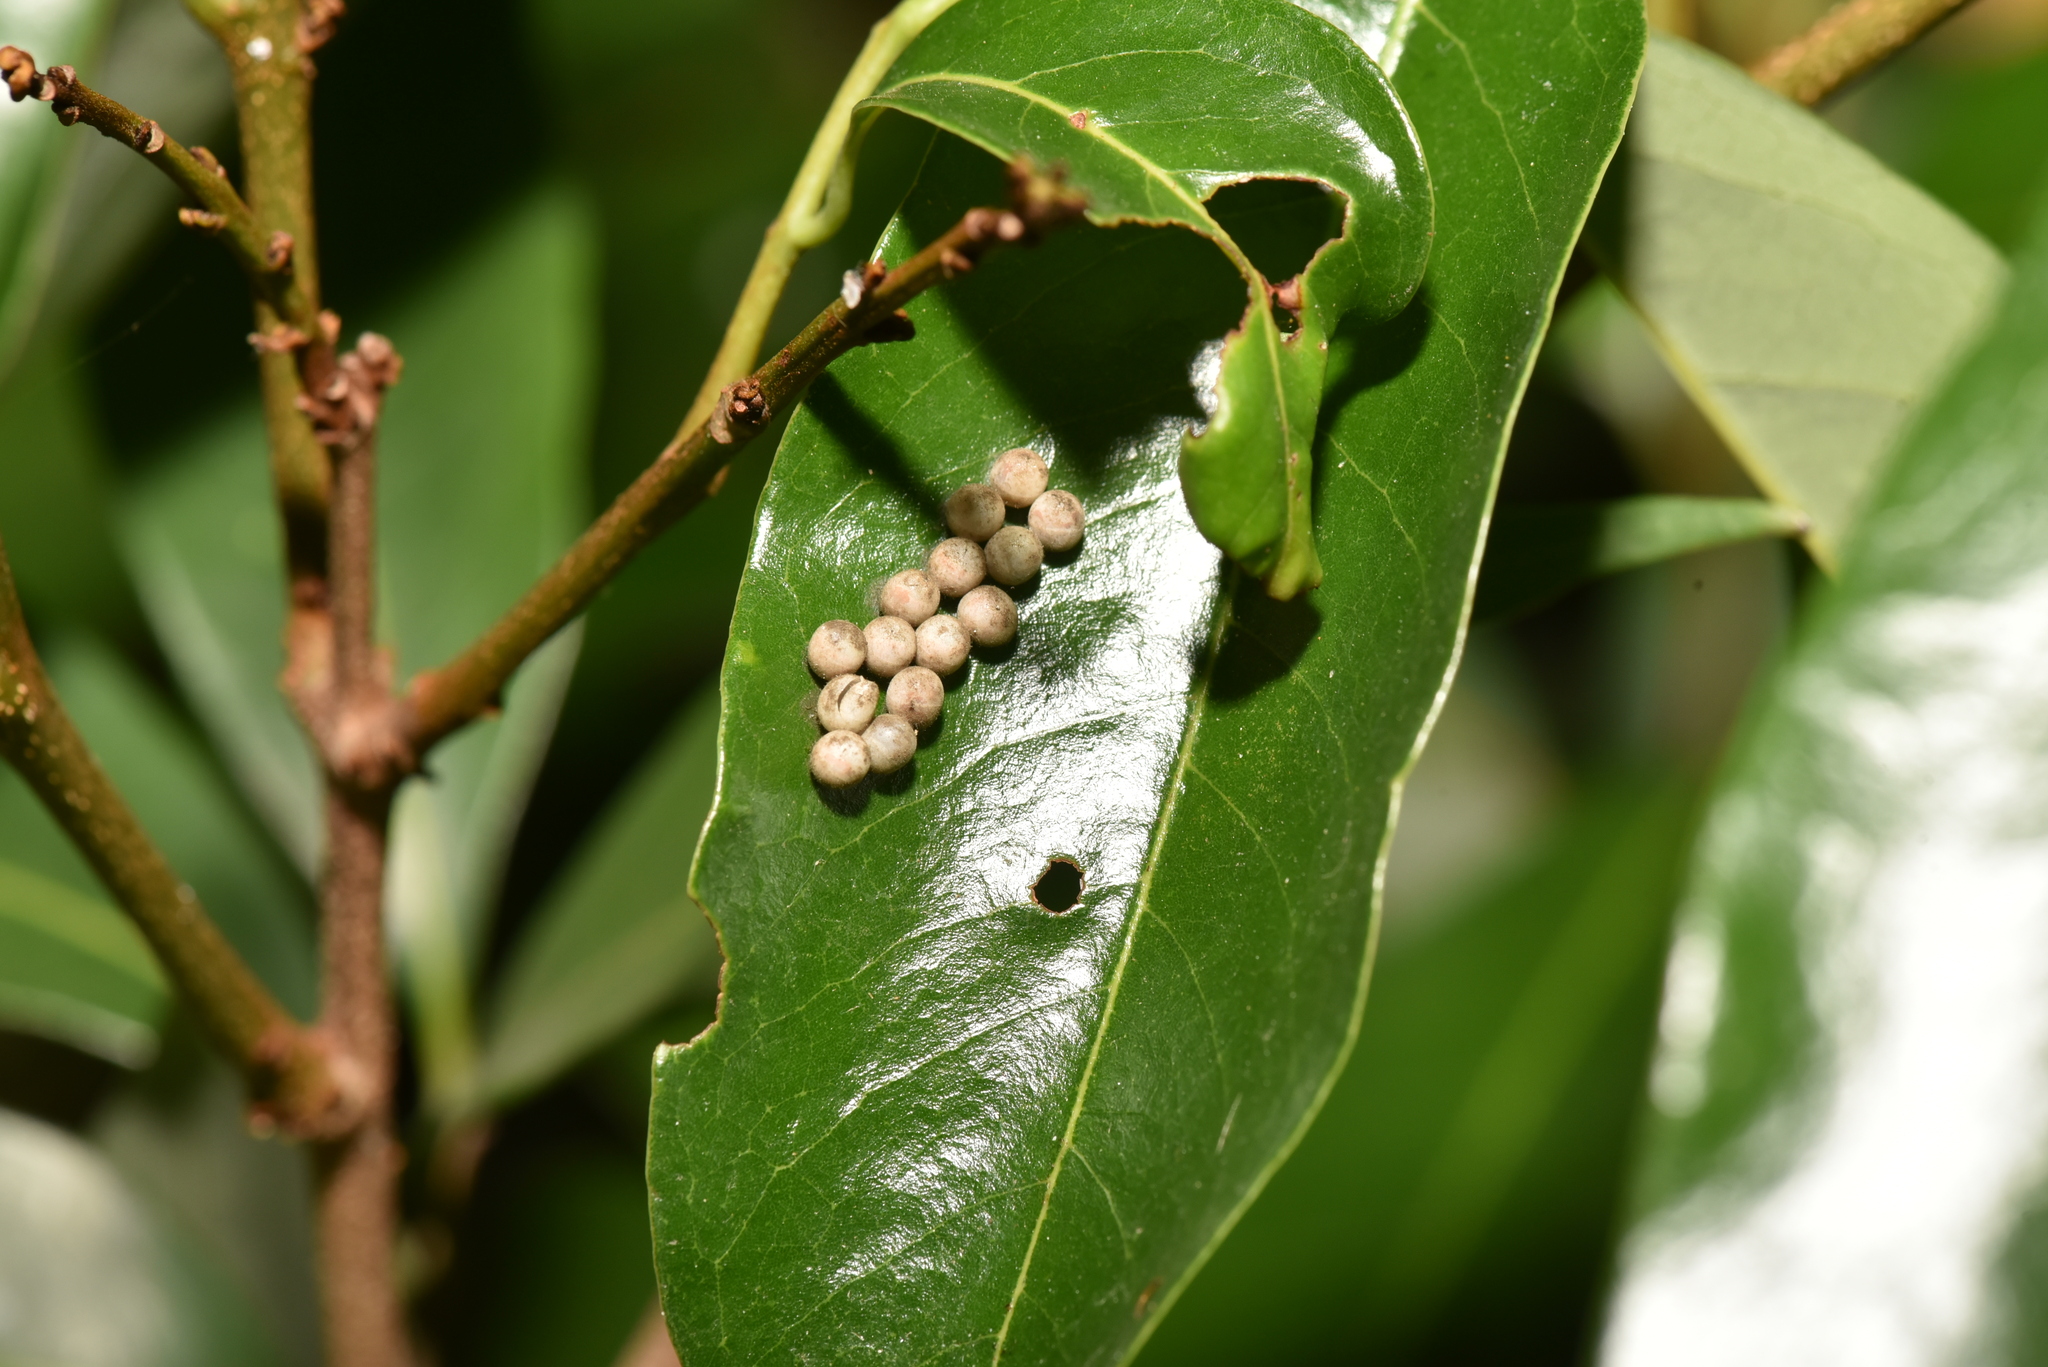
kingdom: Animalia
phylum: Arthropoda
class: Insecta
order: Hemiptera
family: Tessaratomidae
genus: Tessaratoma
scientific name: Tessaratoma papillosa
